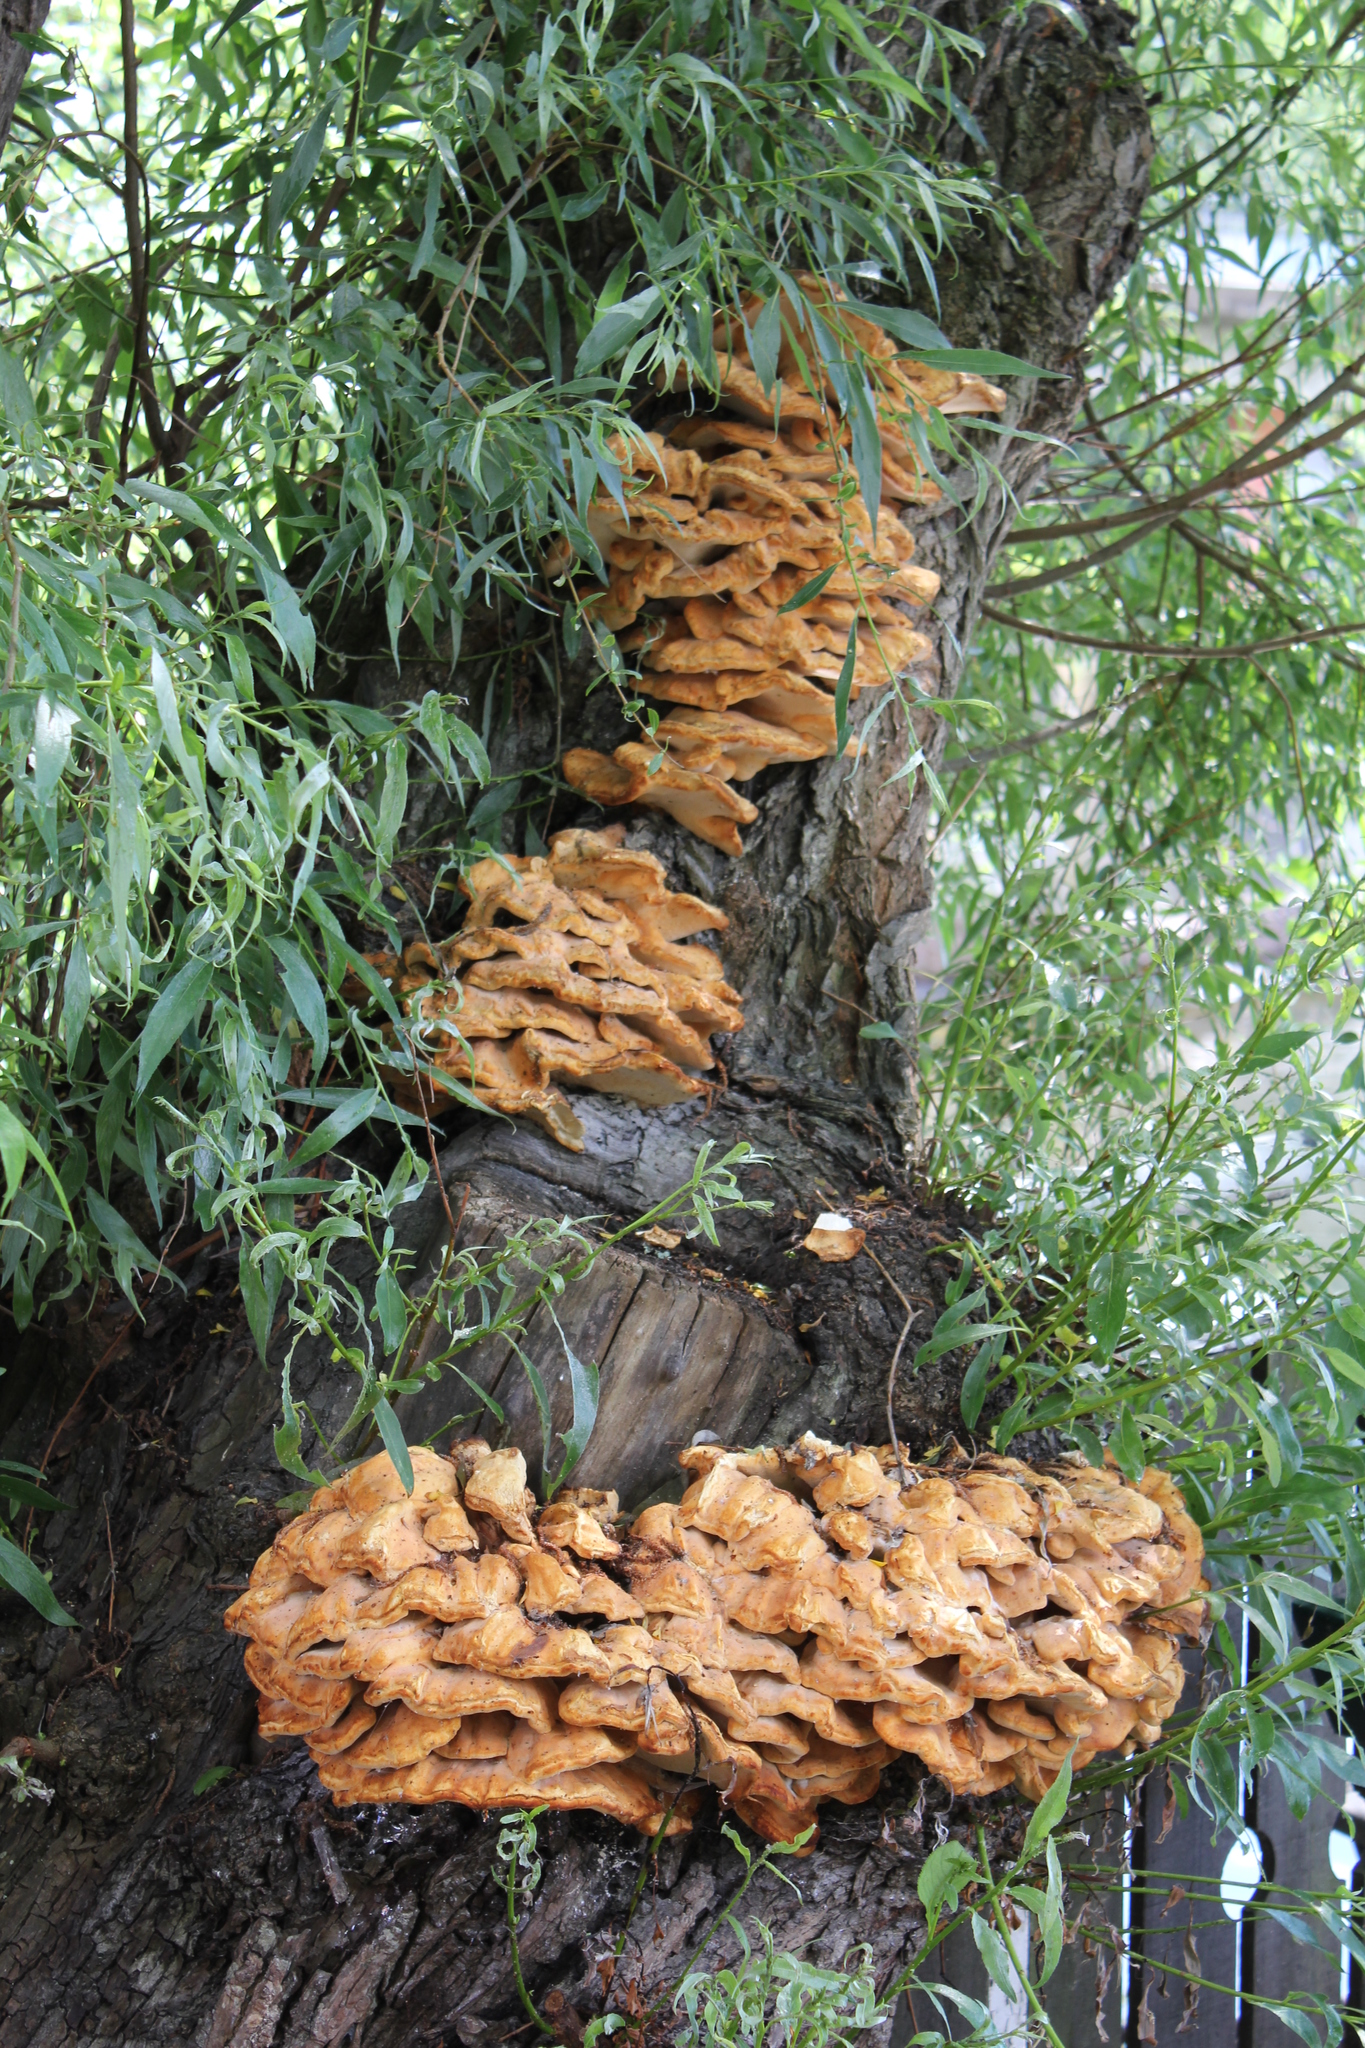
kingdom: Fungi
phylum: Basidiomycota
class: Agaricomycetes
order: Polyporales
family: Laetiporaceae
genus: Laetiporus
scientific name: Laetiporus sulphureus
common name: Chicken of the woods
